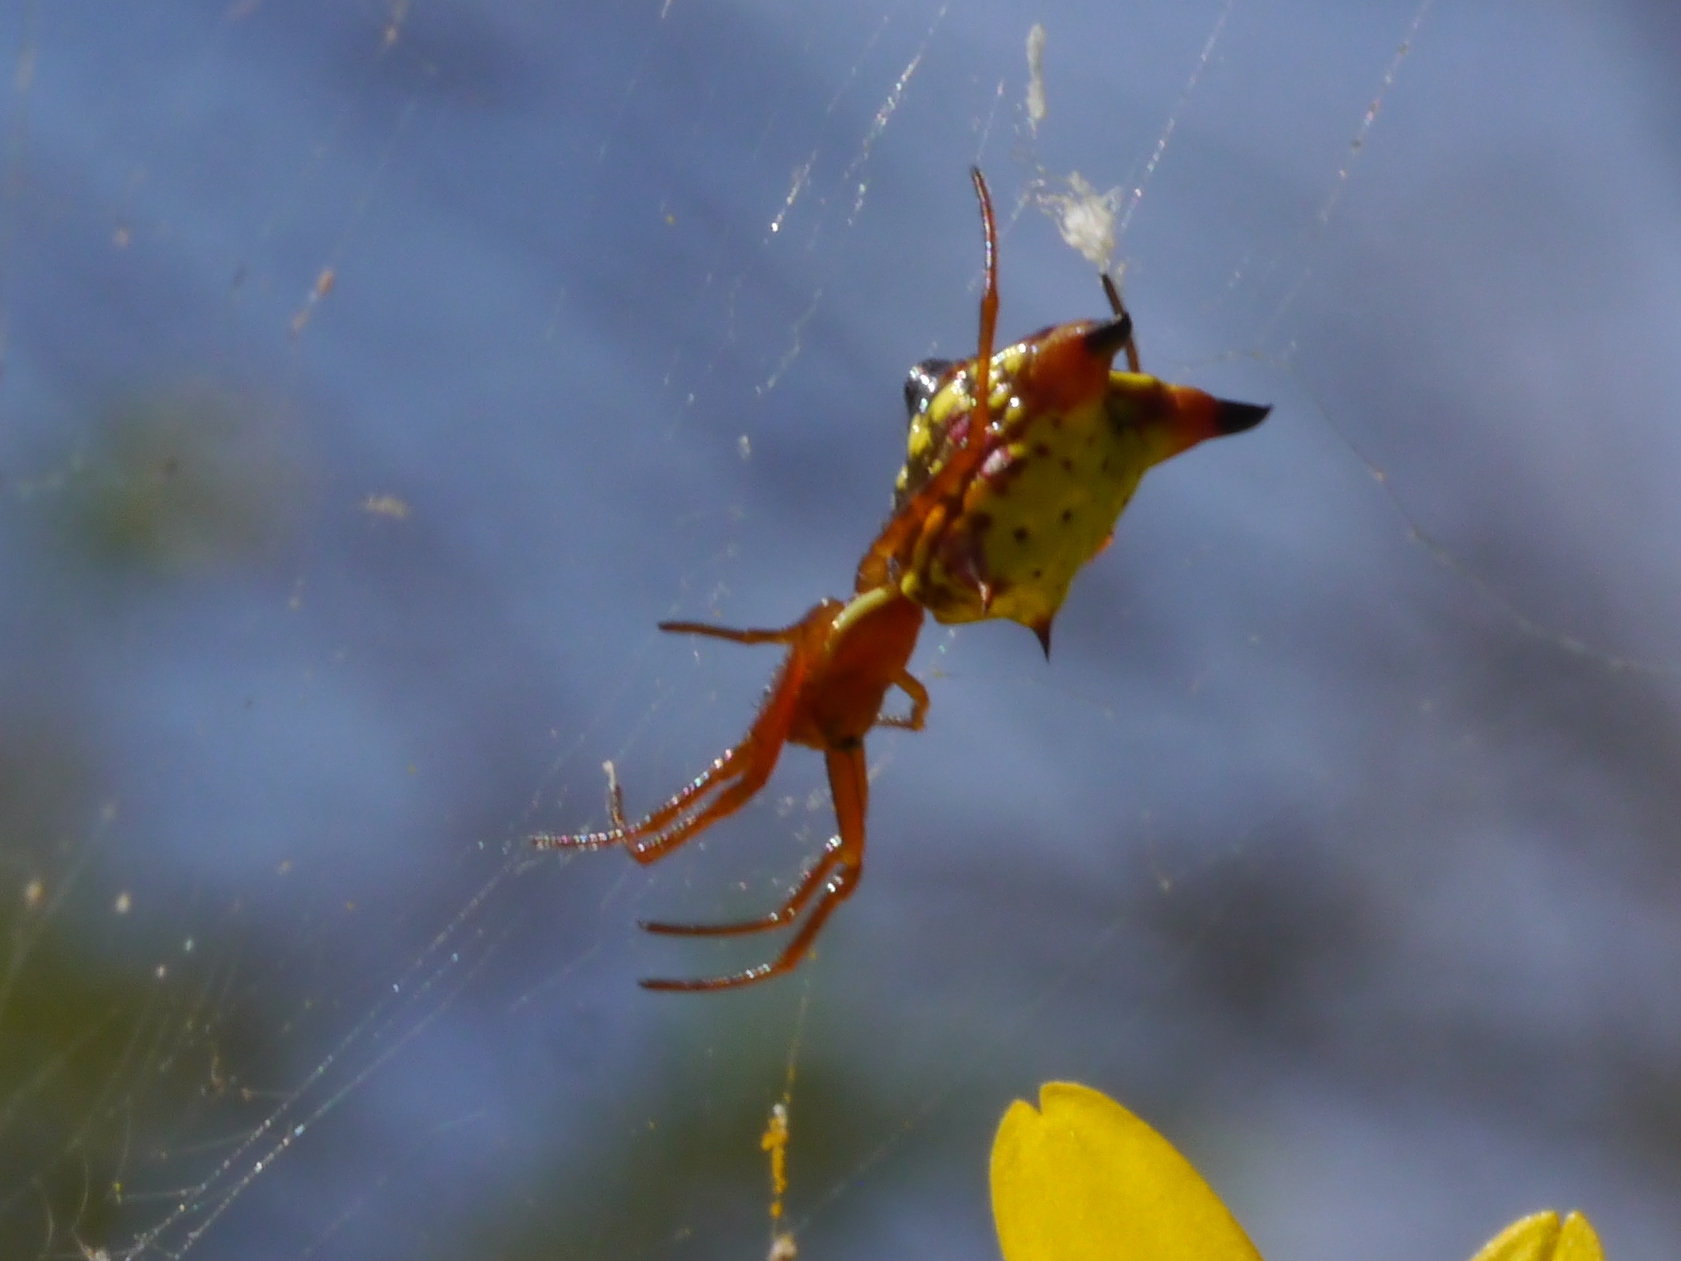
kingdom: Animalia
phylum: Arthropoda
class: Arachnida
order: Araneae
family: Araneidae
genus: Micrathena
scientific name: Micrathena sagittata
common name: Orb weavers
